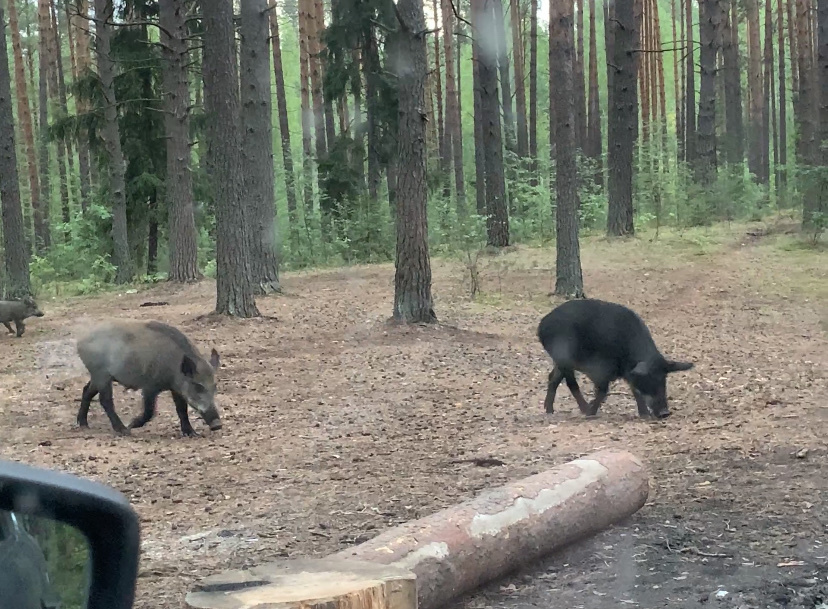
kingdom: Animalia
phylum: Chordata
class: Mammalia
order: Artiodactyla
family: Suidae
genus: Sus
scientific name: Sus scrofa
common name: Wild boar
